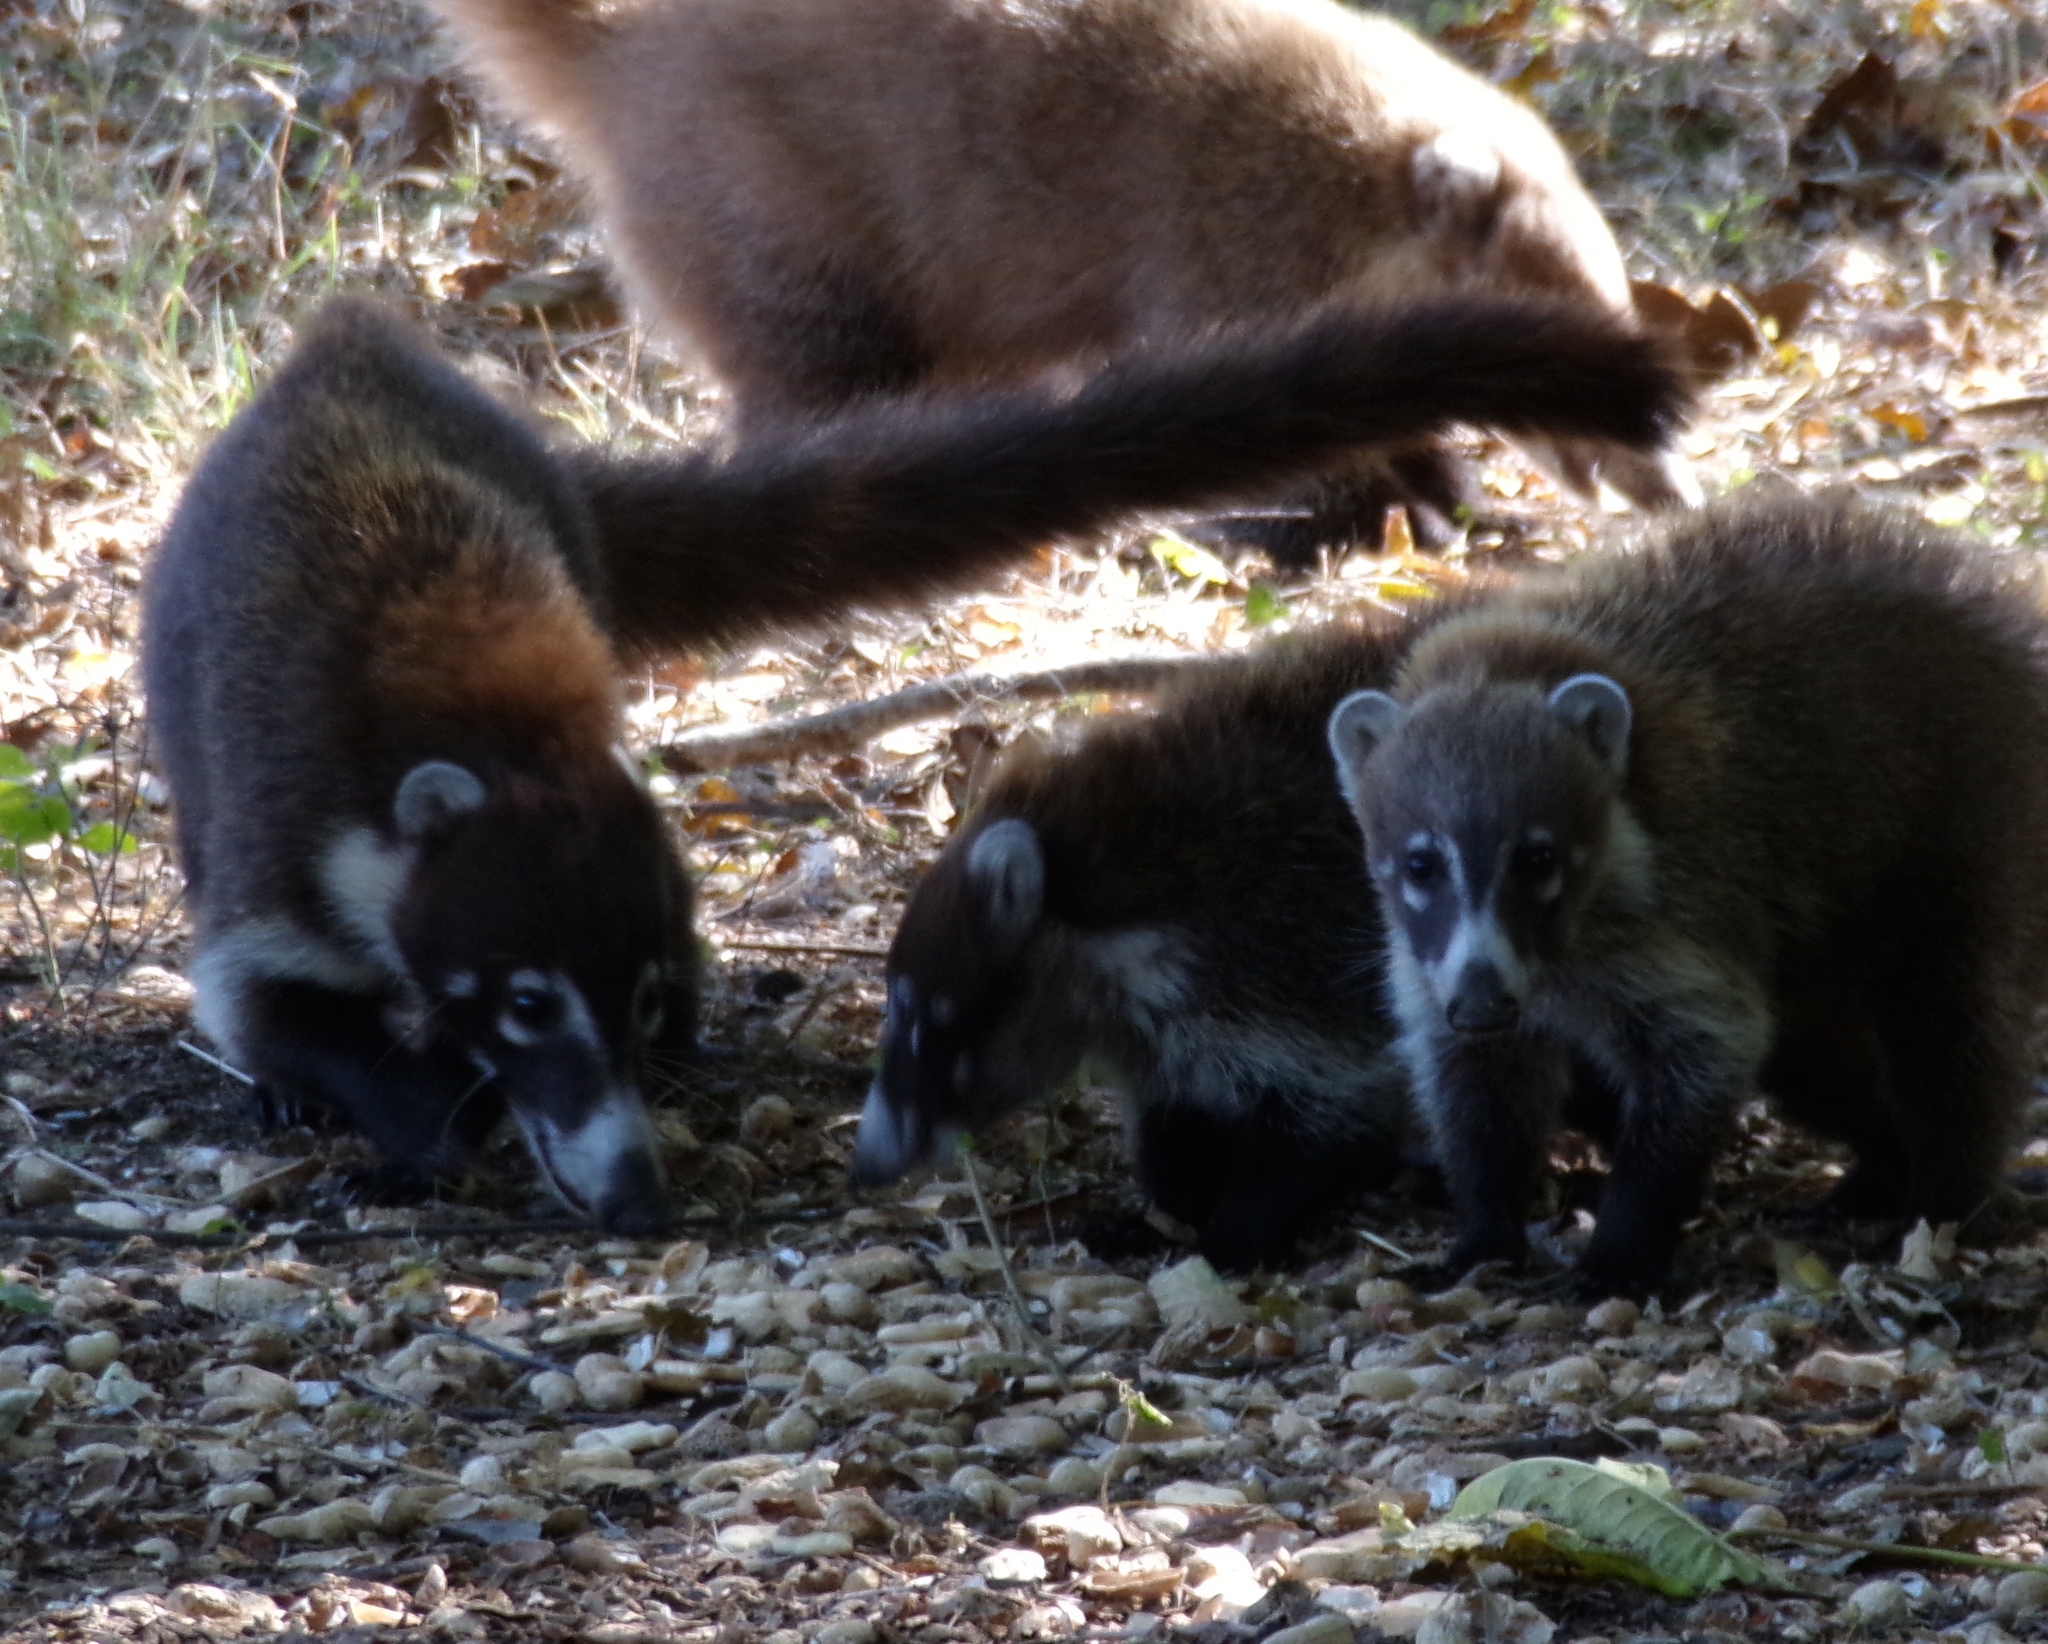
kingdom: Animalia
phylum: Chordata
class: Mammalia
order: Carnivora
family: Procyonidae
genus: Nasua
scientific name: Nasua narica
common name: White-nosed coati
